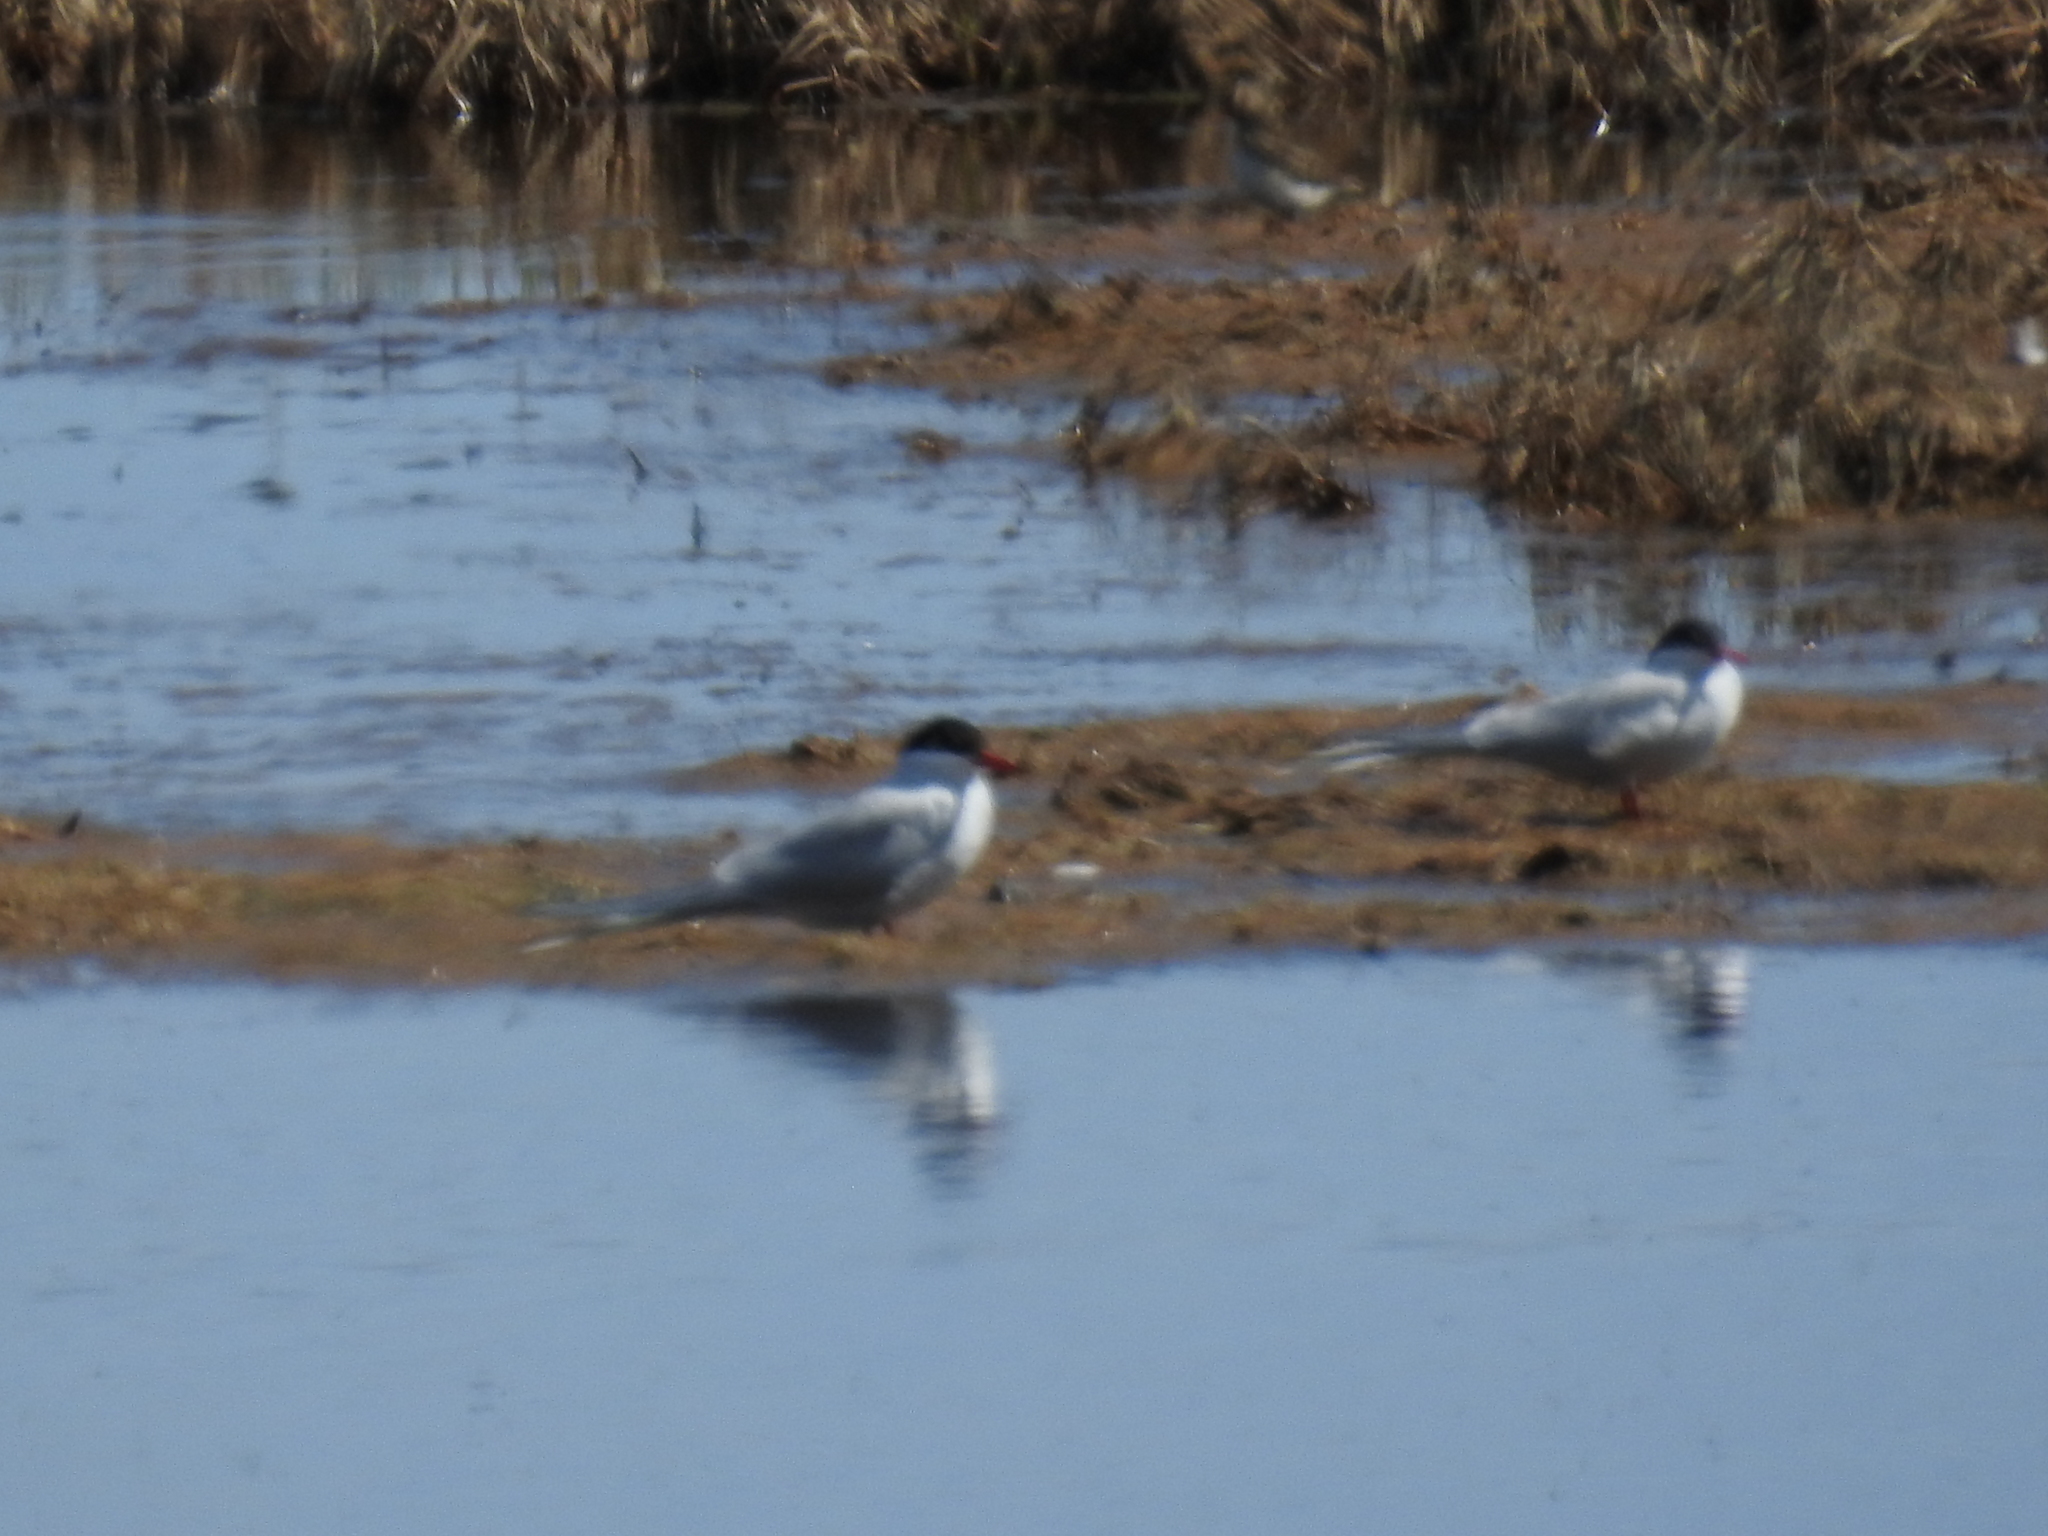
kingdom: Animalia
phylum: Chordata
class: Aves
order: Charadriiformes
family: Laridae
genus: Sterna
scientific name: Sterna paradisaea
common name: Arctic tern
